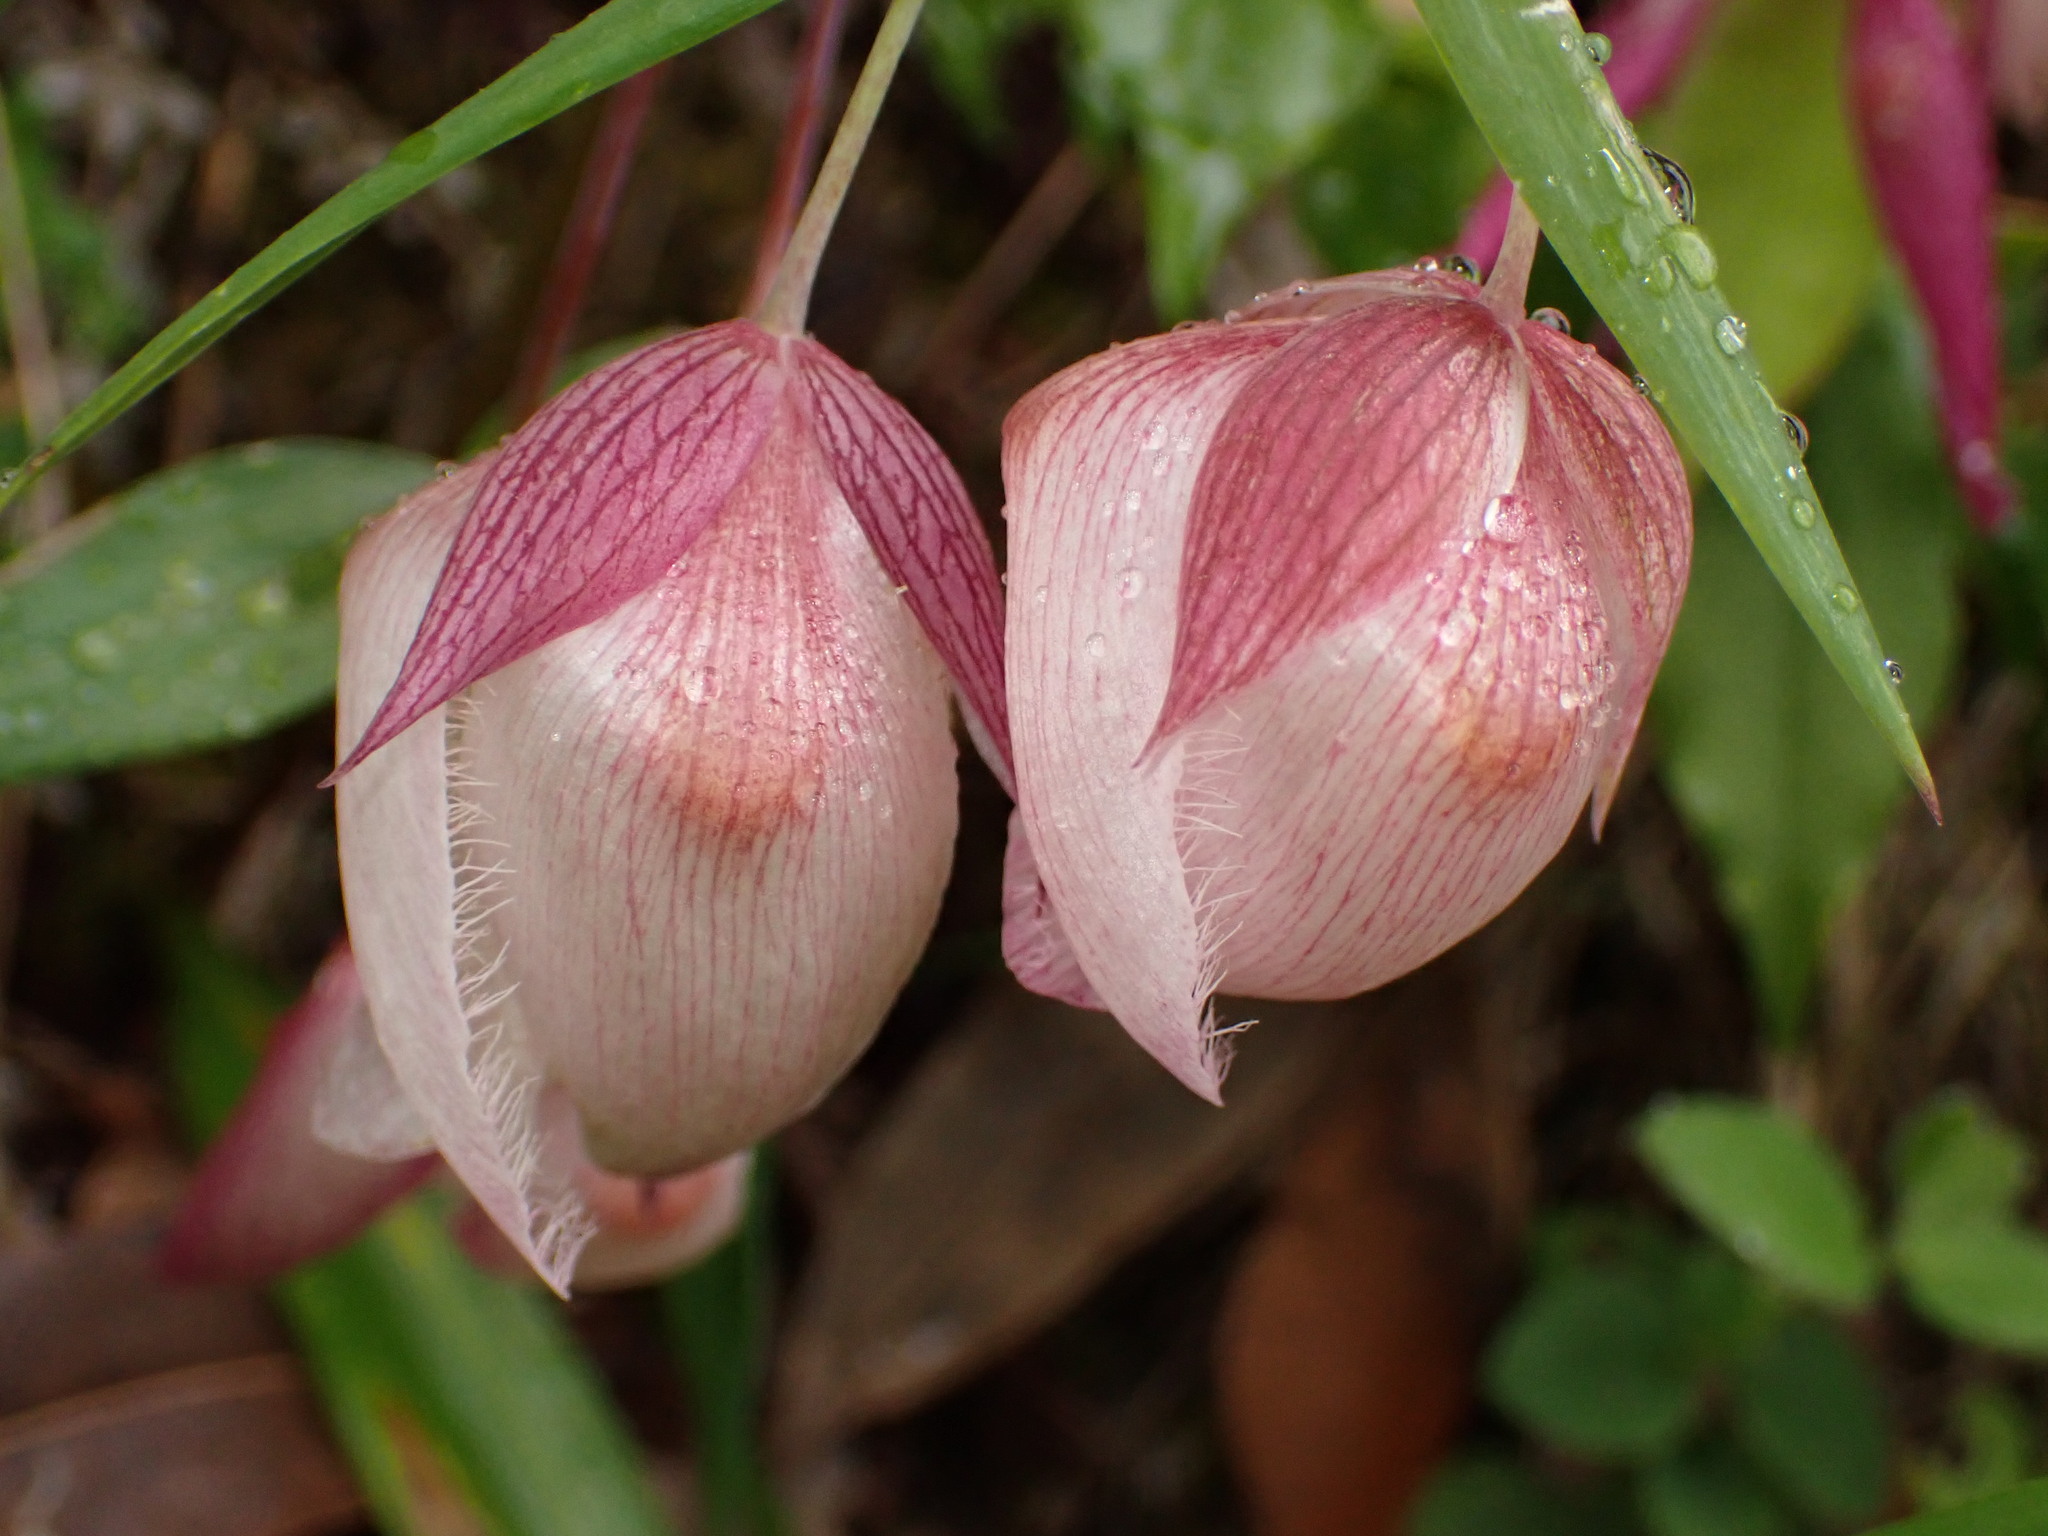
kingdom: Plantae
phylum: Tracheophyta
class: Liliopsida
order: Liliales
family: Liliaceae
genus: Calochortus
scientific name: Calochortus albus
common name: Fairy-lantern
